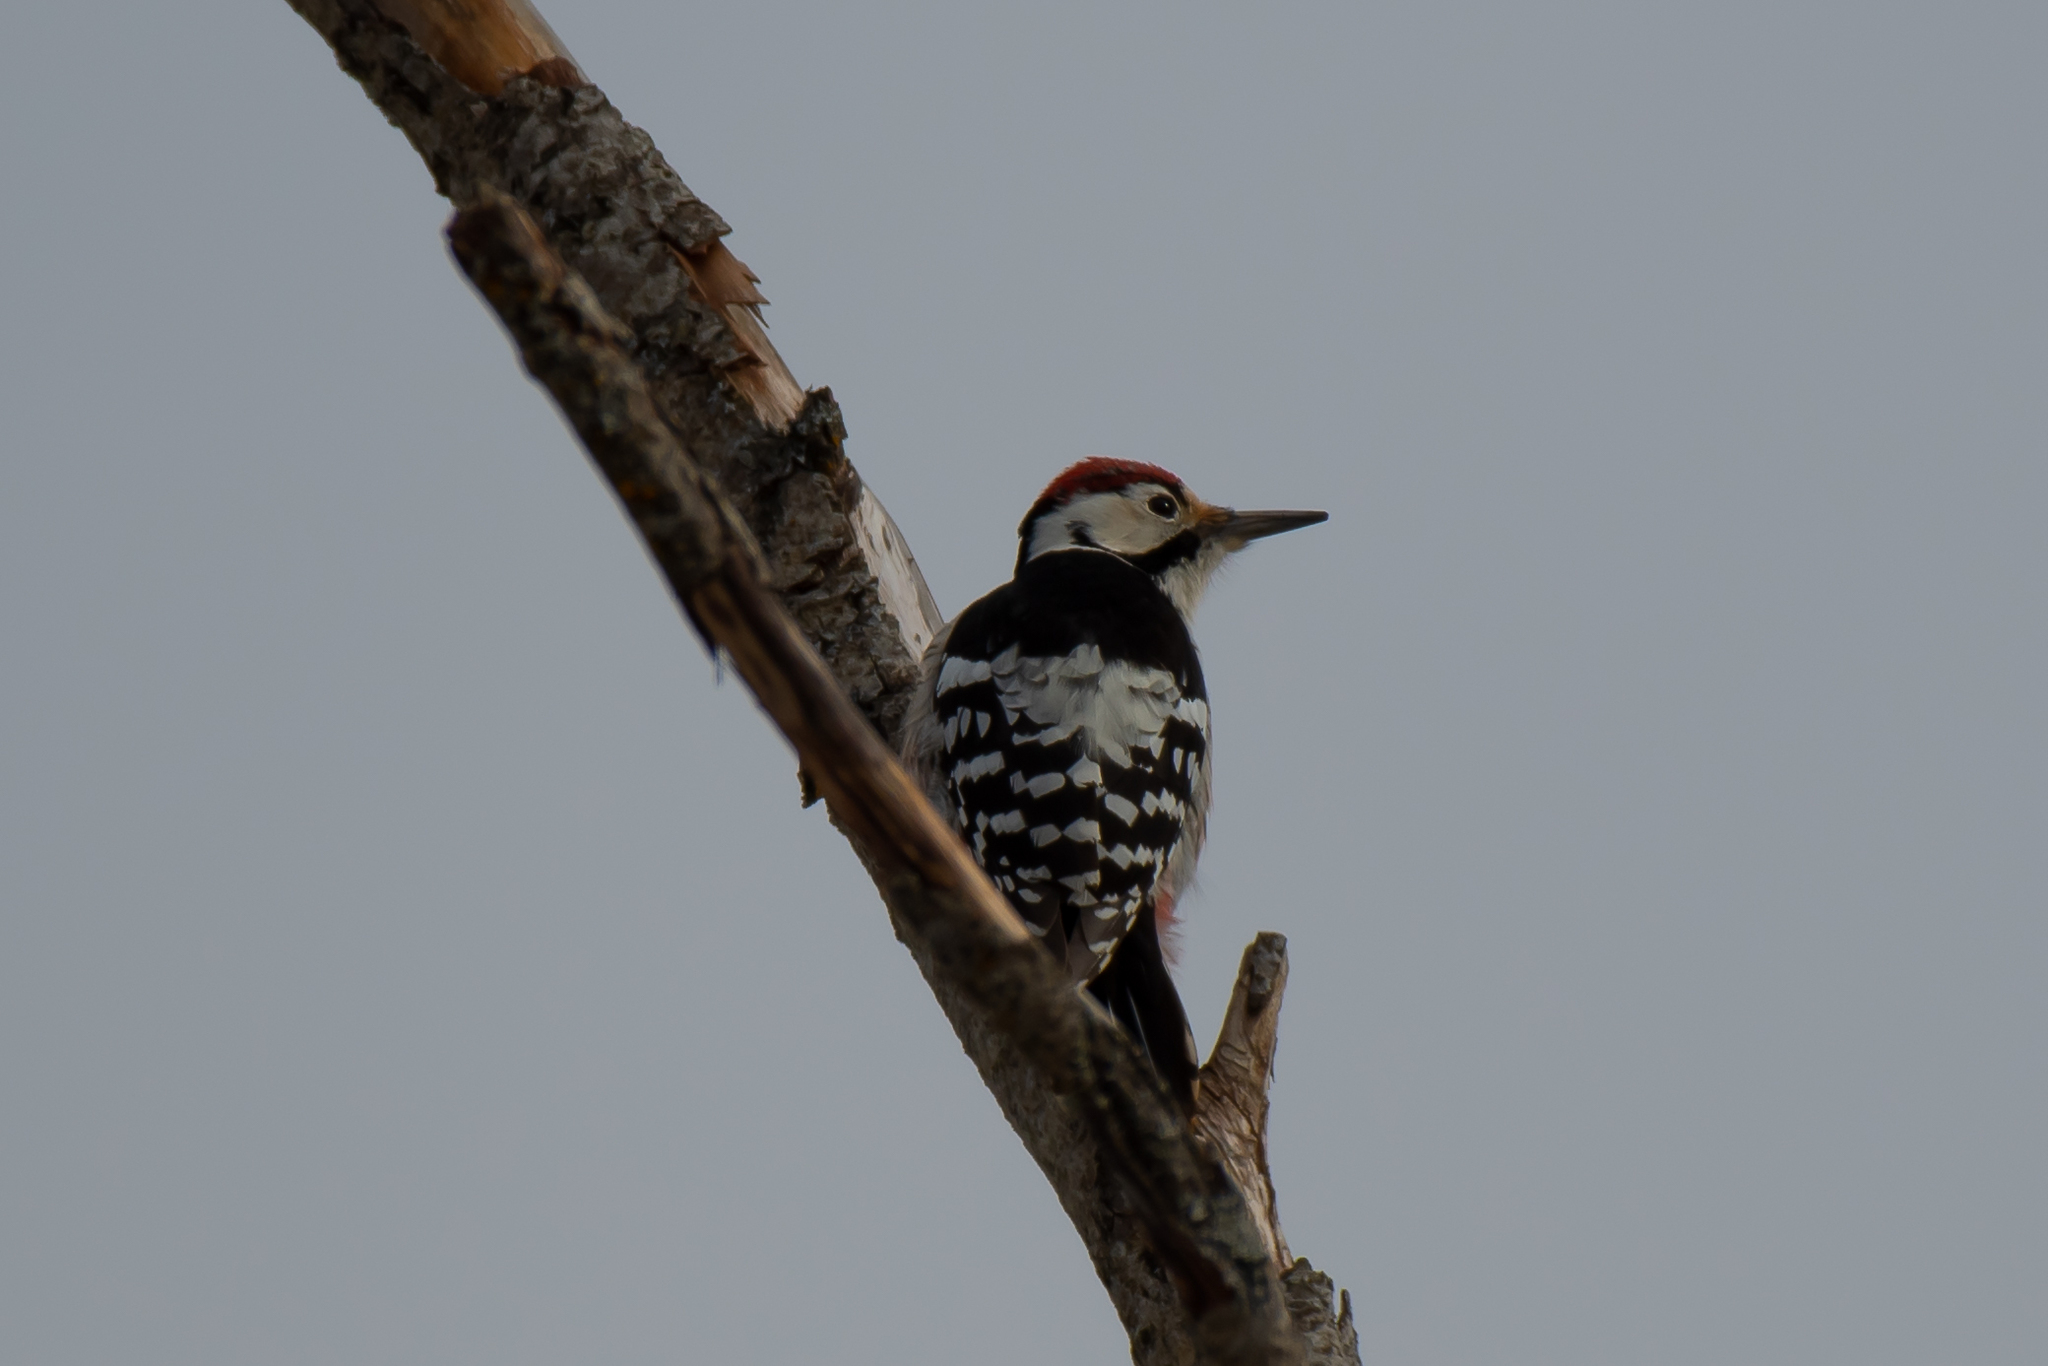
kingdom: Animalia
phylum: Chordata
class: Aves
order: Piciformes
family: Picidae
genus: Dendrocopos
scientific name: Dendrocopos leucotos
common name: White-backed woodpecker
